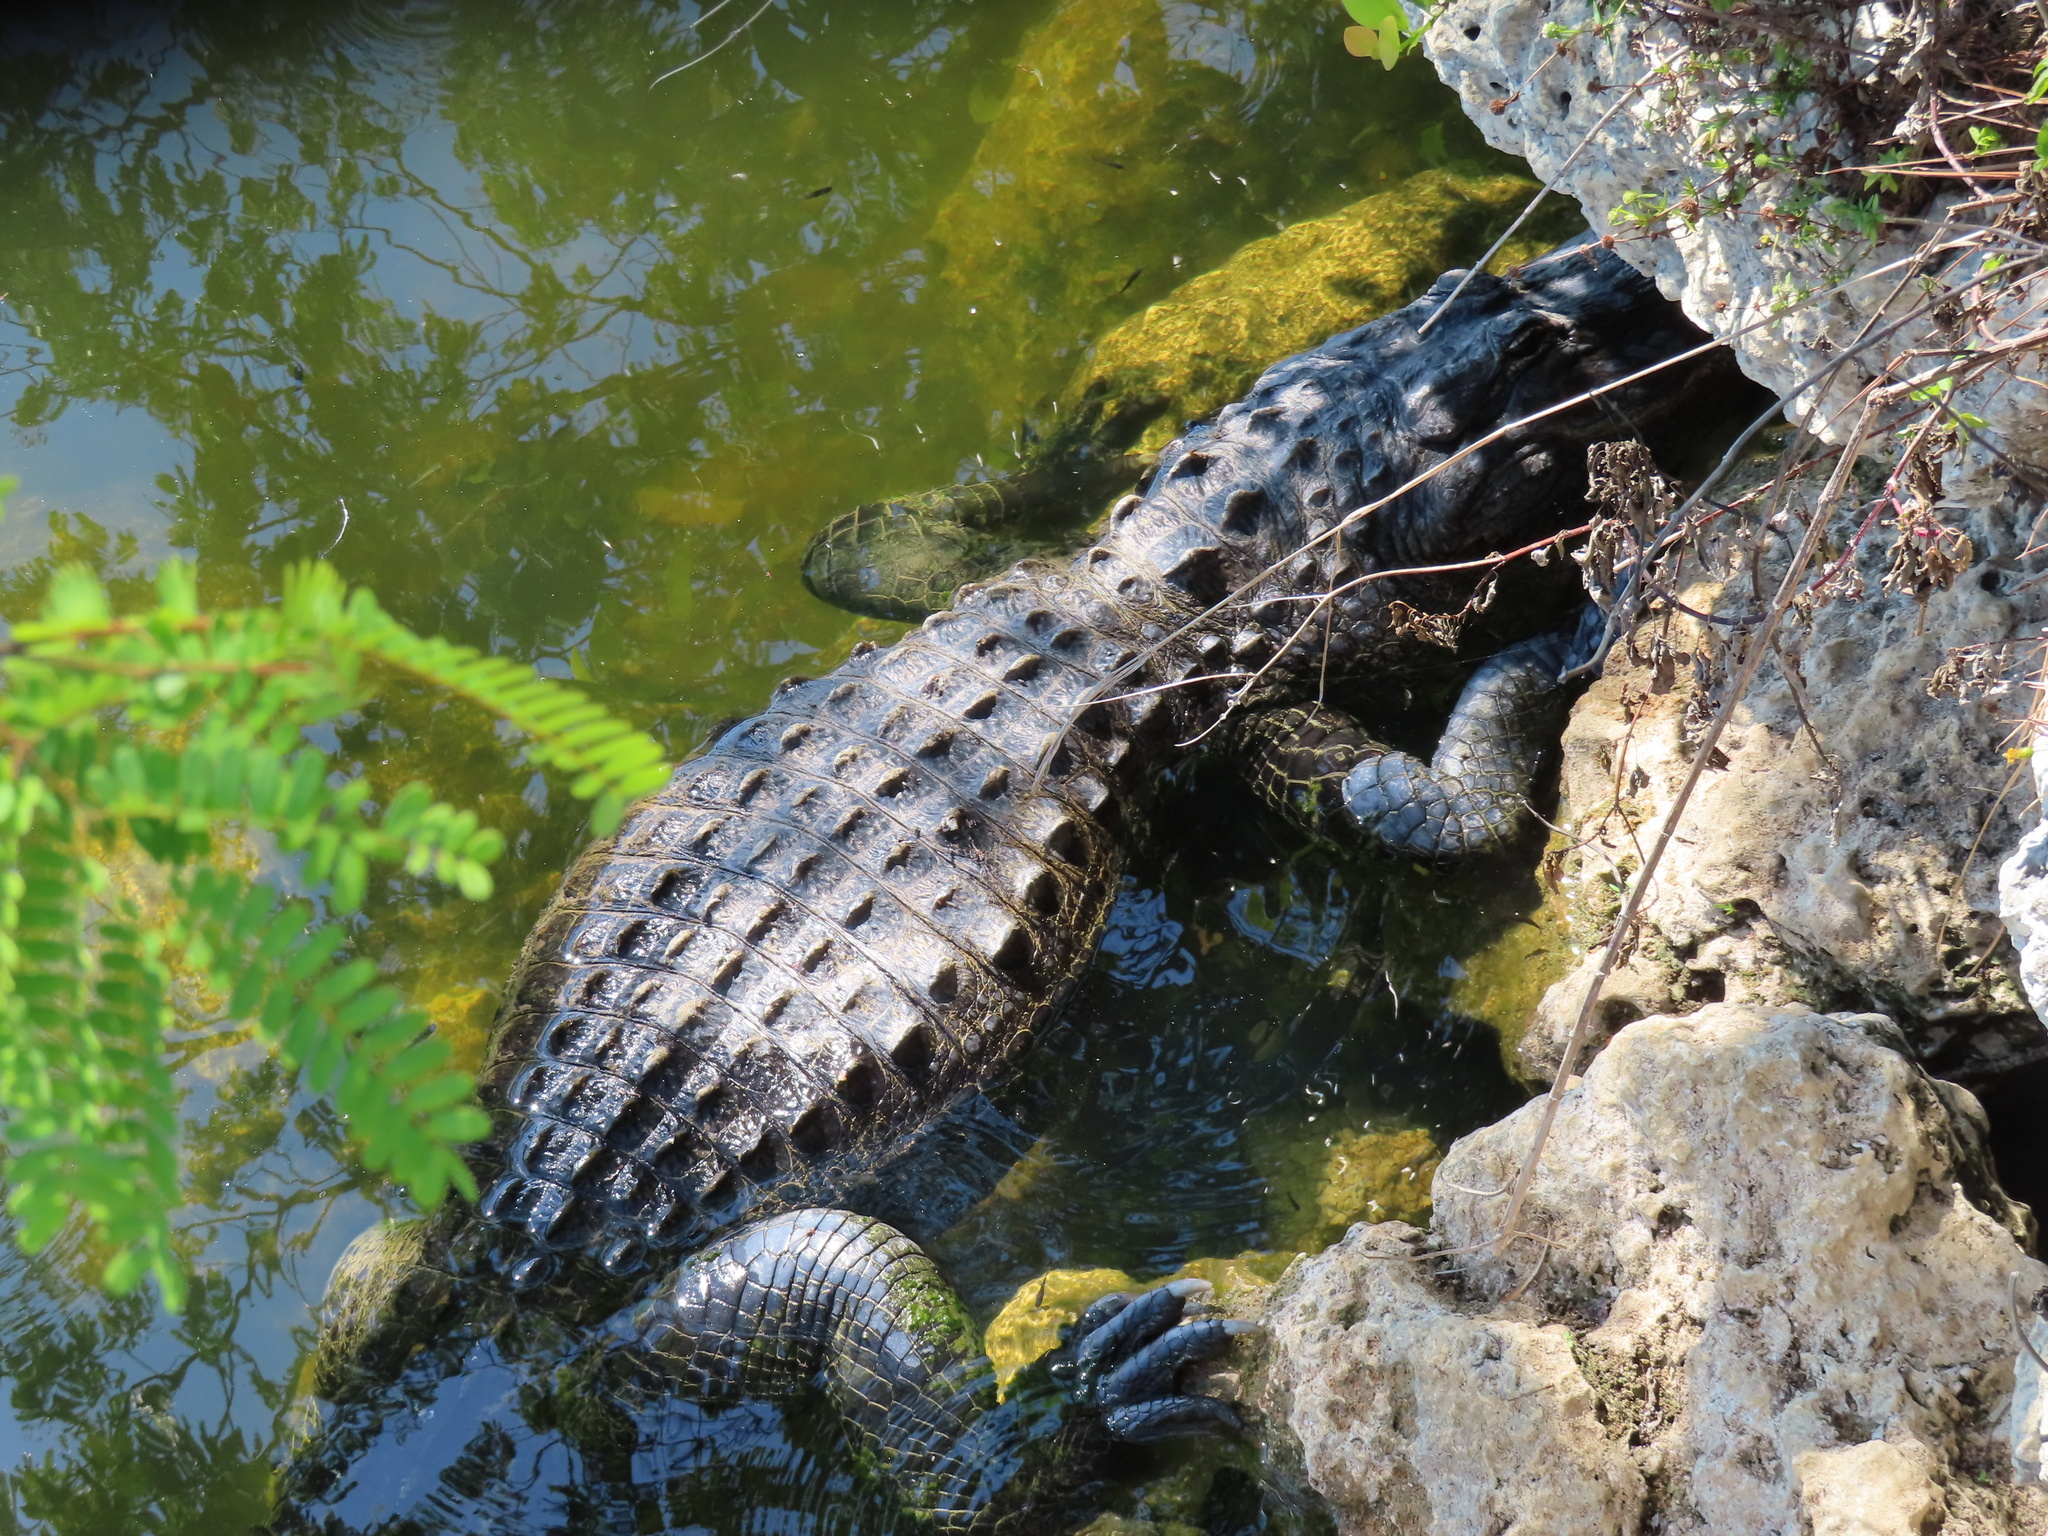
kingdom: Animalia
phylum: Chordata
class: Crocodylia
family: Alligatoridae
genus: Alligator
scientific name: Alligator mississippiensis
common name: American alligator
